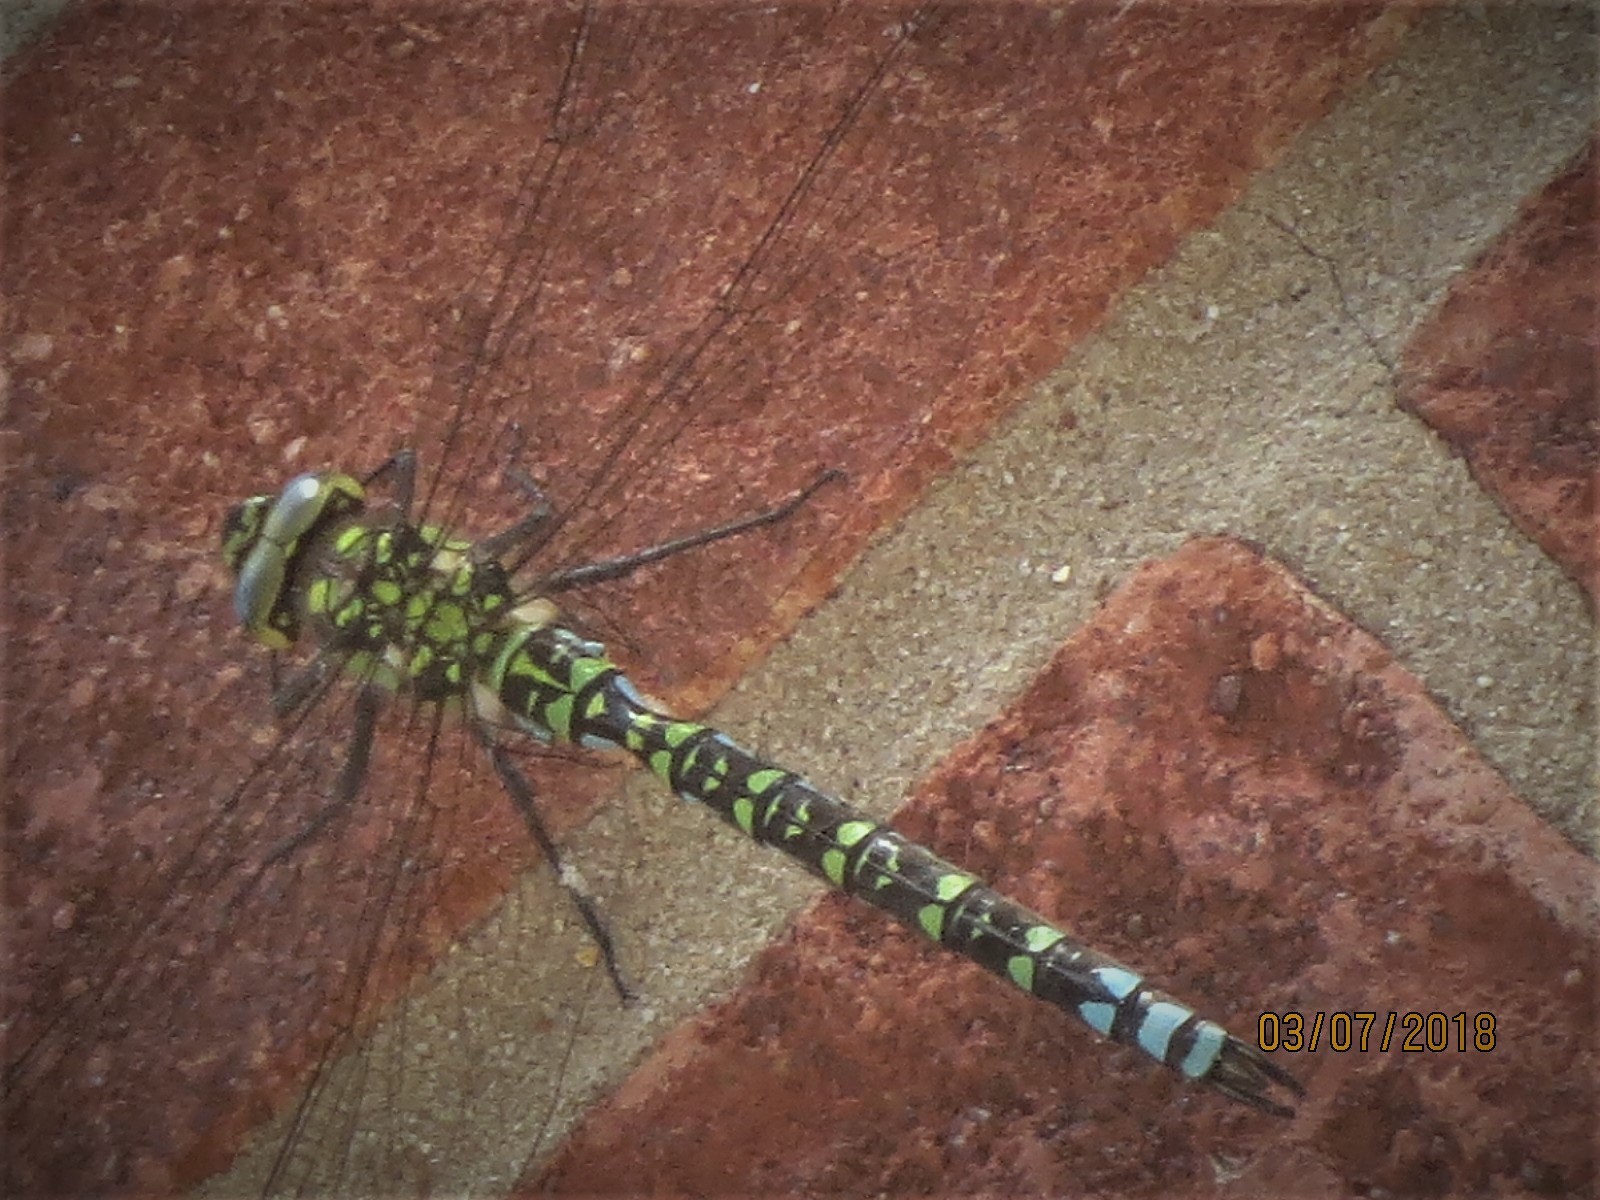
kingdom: Animalia
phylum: Arthropoda
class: Insecta
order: Odonata
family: Aeshnidae
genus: Aeshna
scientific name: Aeshna cyanea
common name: Southern hawker
